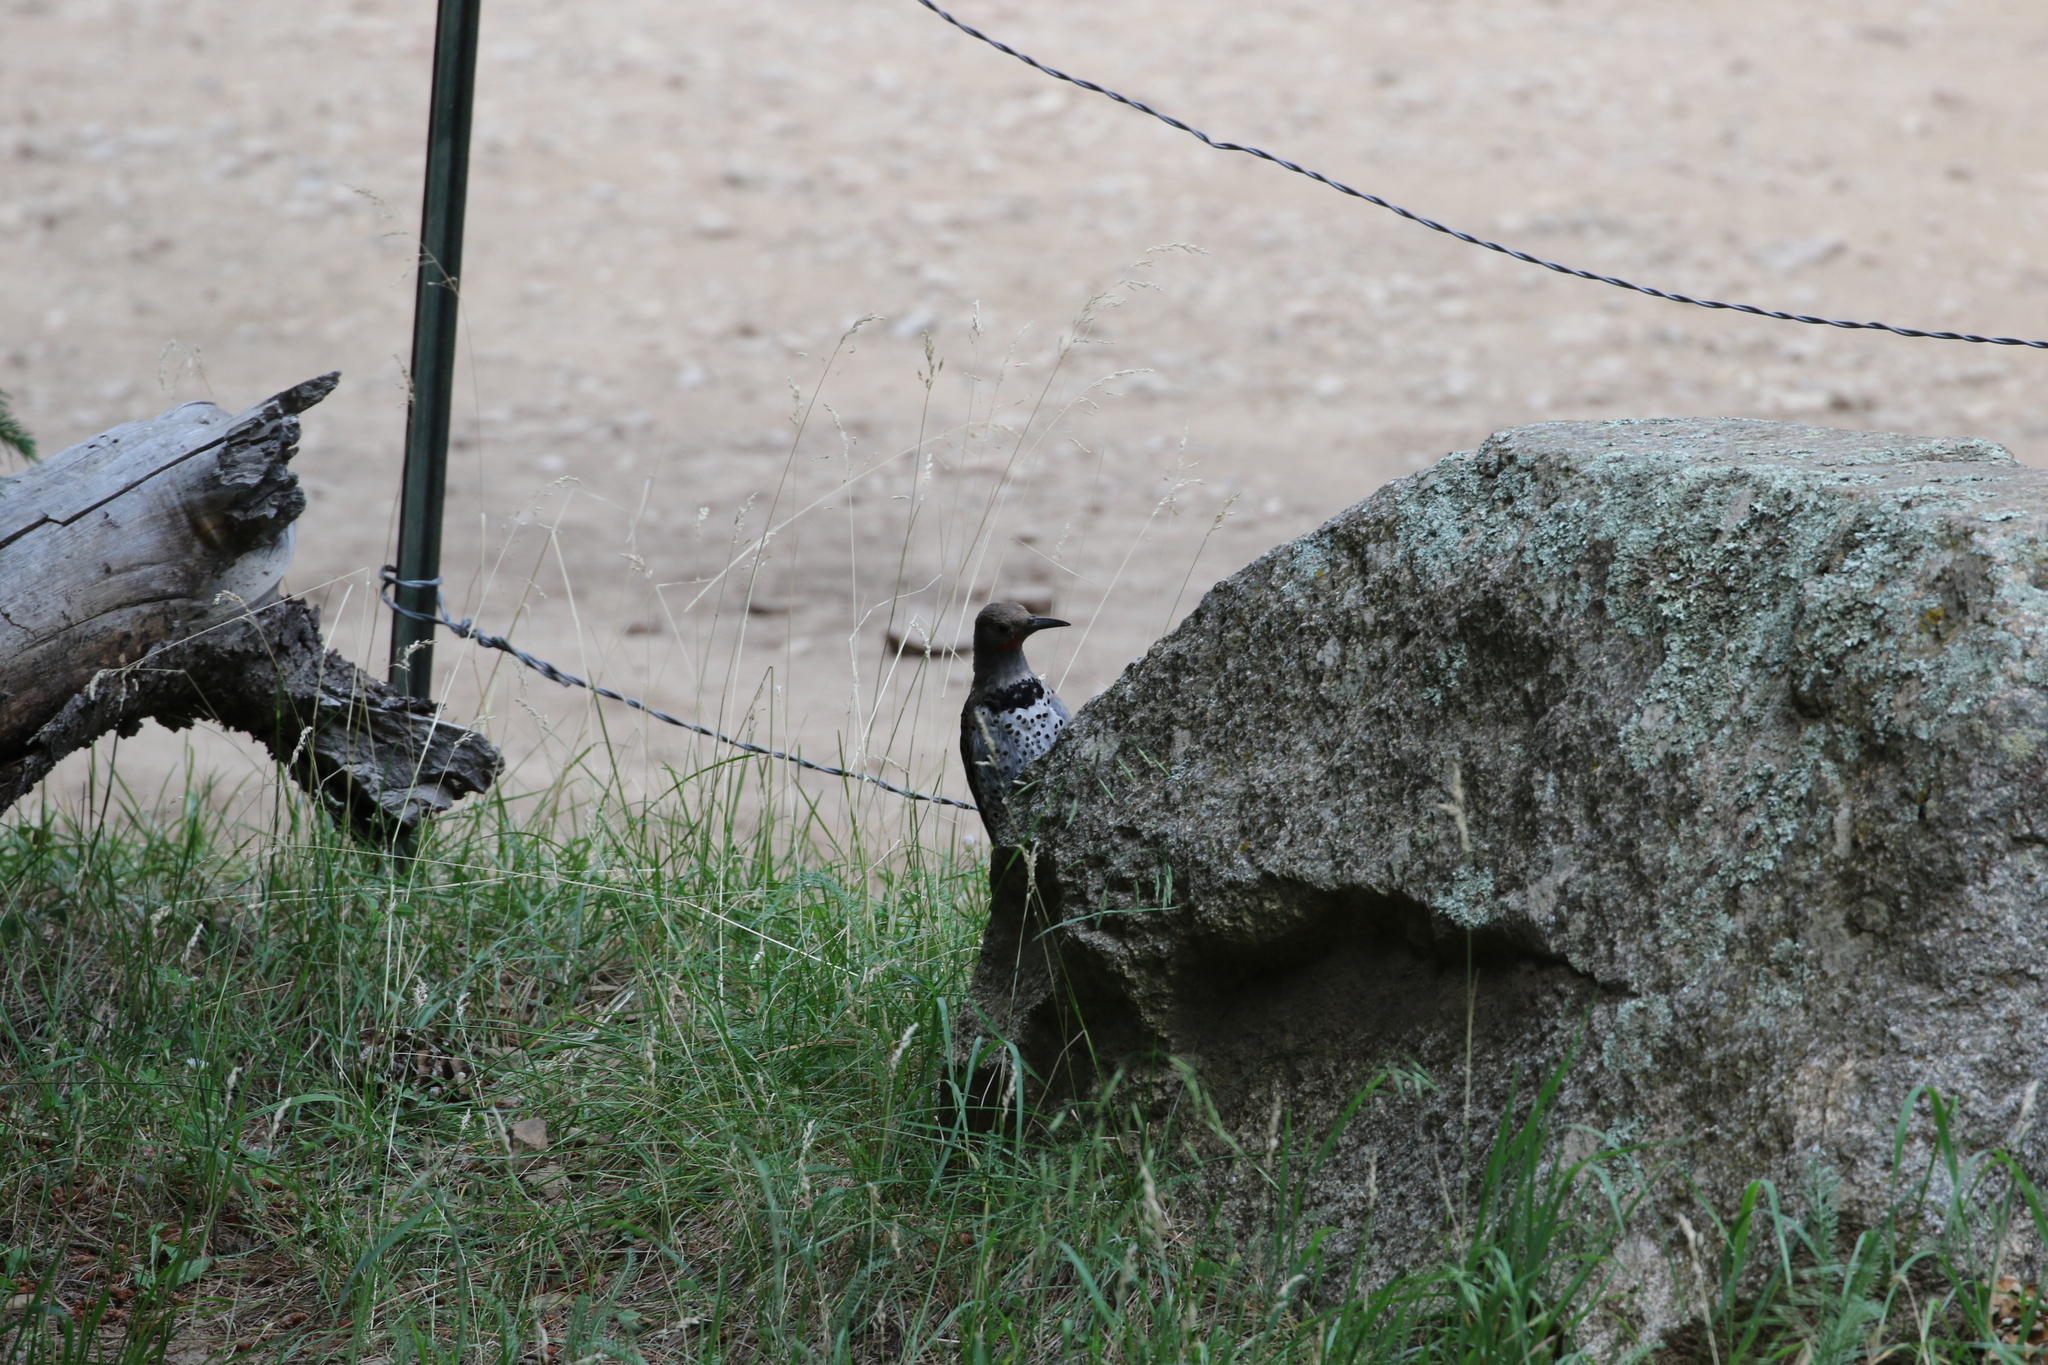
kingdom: Animalia
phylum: Chordata
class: Aves
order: Piciformes
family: Picidae
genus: Colaptes
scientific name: Colaptes auratus
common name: Northern flicker
